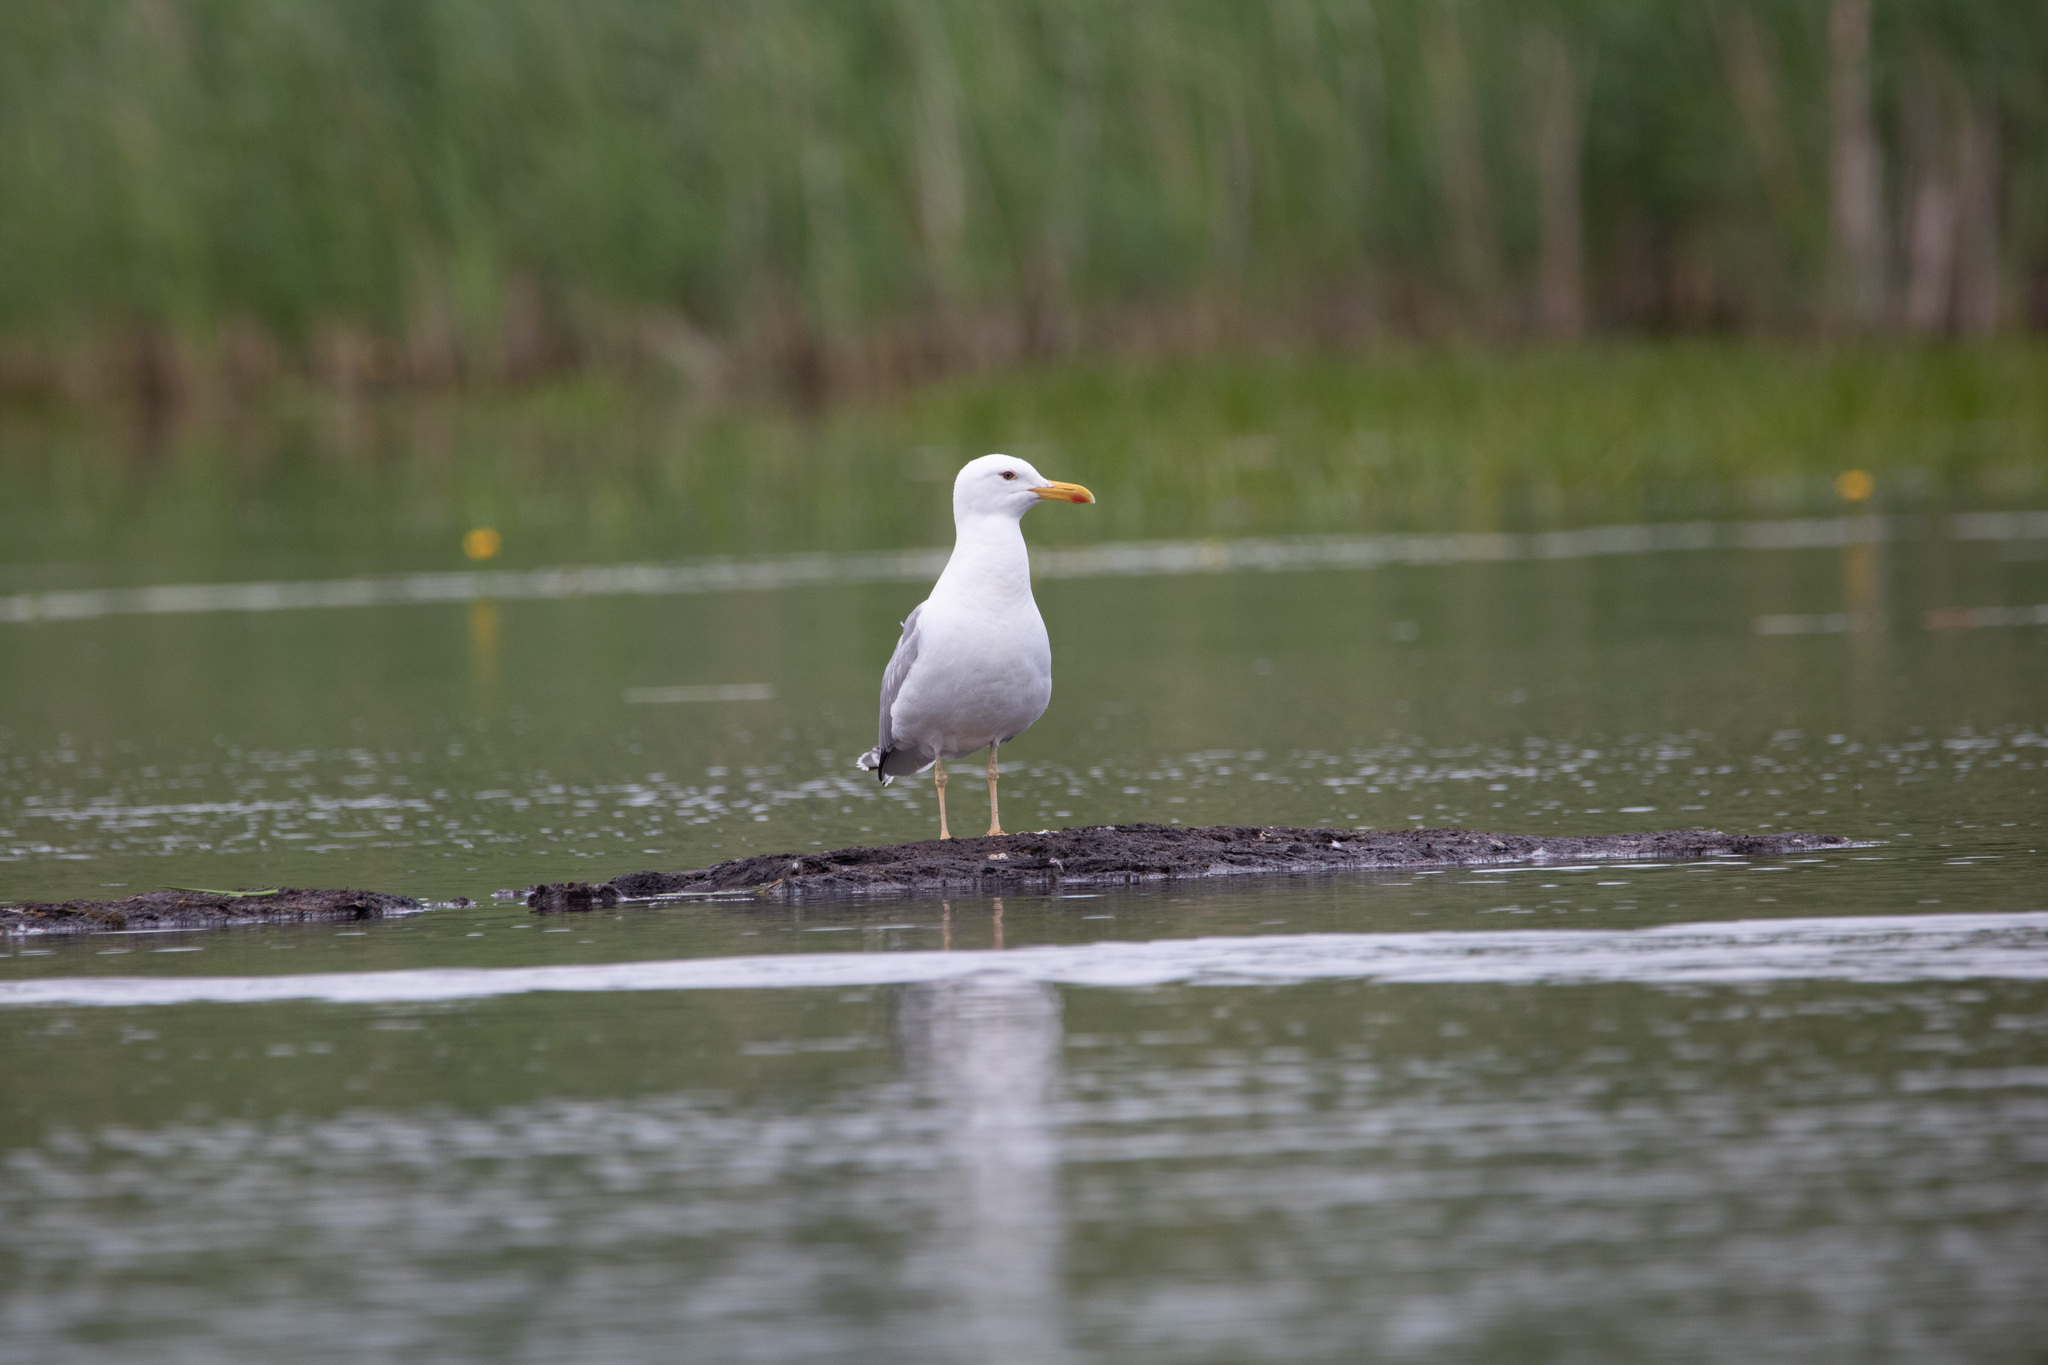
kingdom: Animalia
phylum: Chordata
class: Aves
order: Charadriiformes
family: Laridae
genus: Larus
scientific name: Larus cachinnans
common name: Caspian gull
